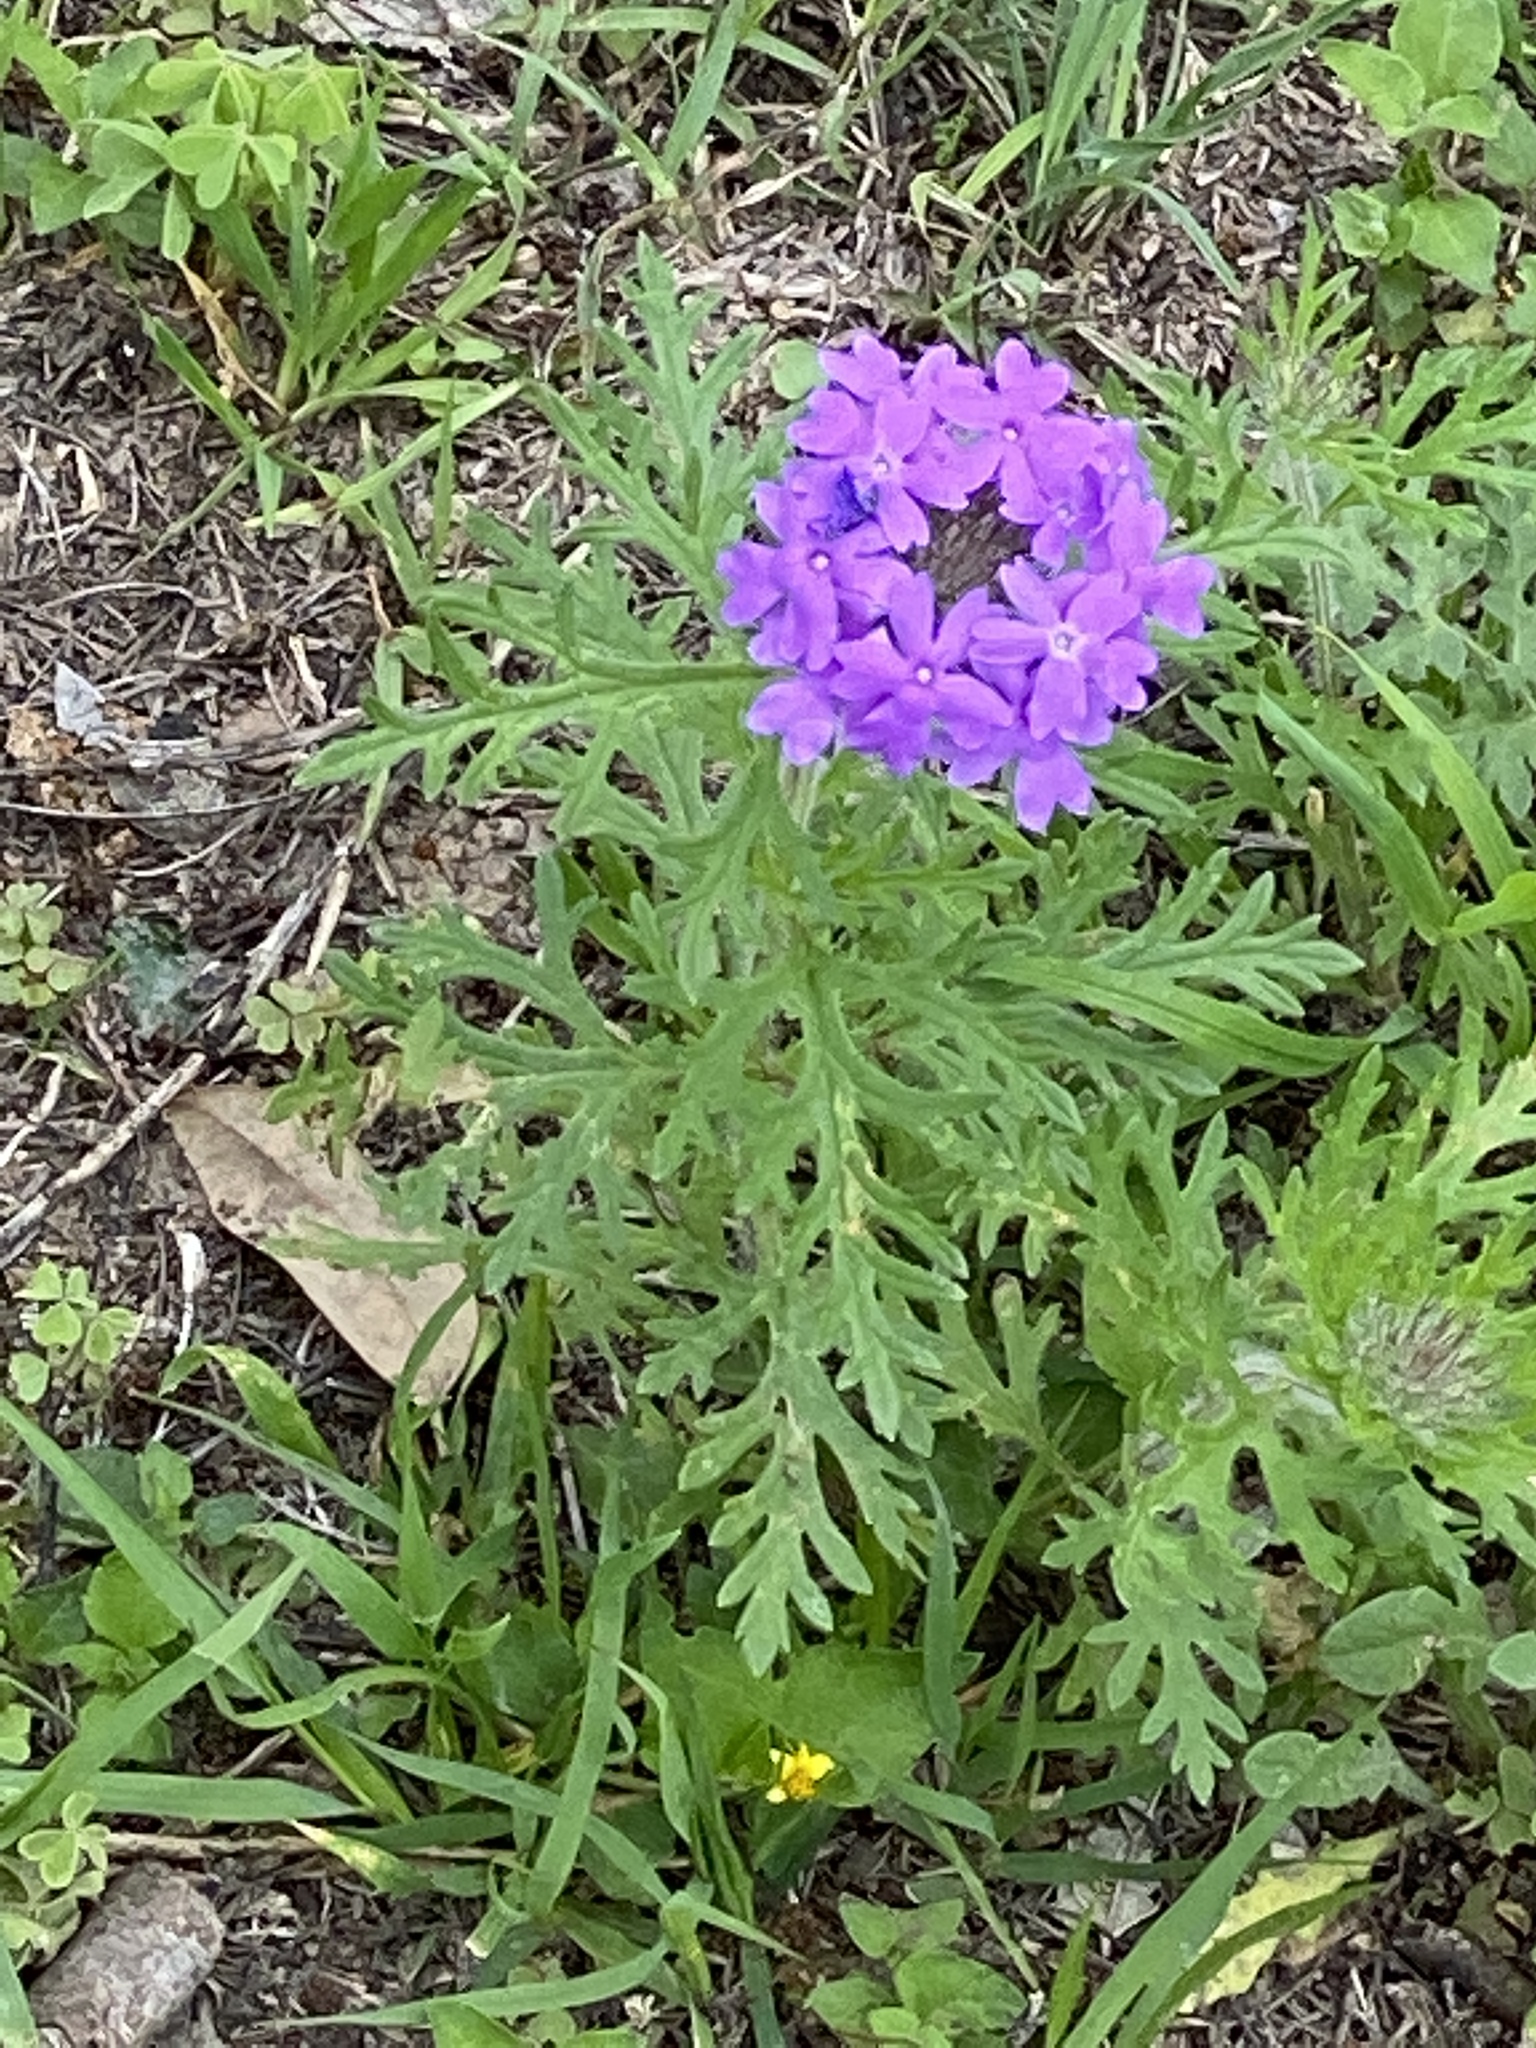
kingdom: Plantae
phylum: Tracheophyta
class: Magnoliopsida
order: Lamiales
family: Verbenaceae
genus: Verbena
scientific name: Verbena bipinnatifida
